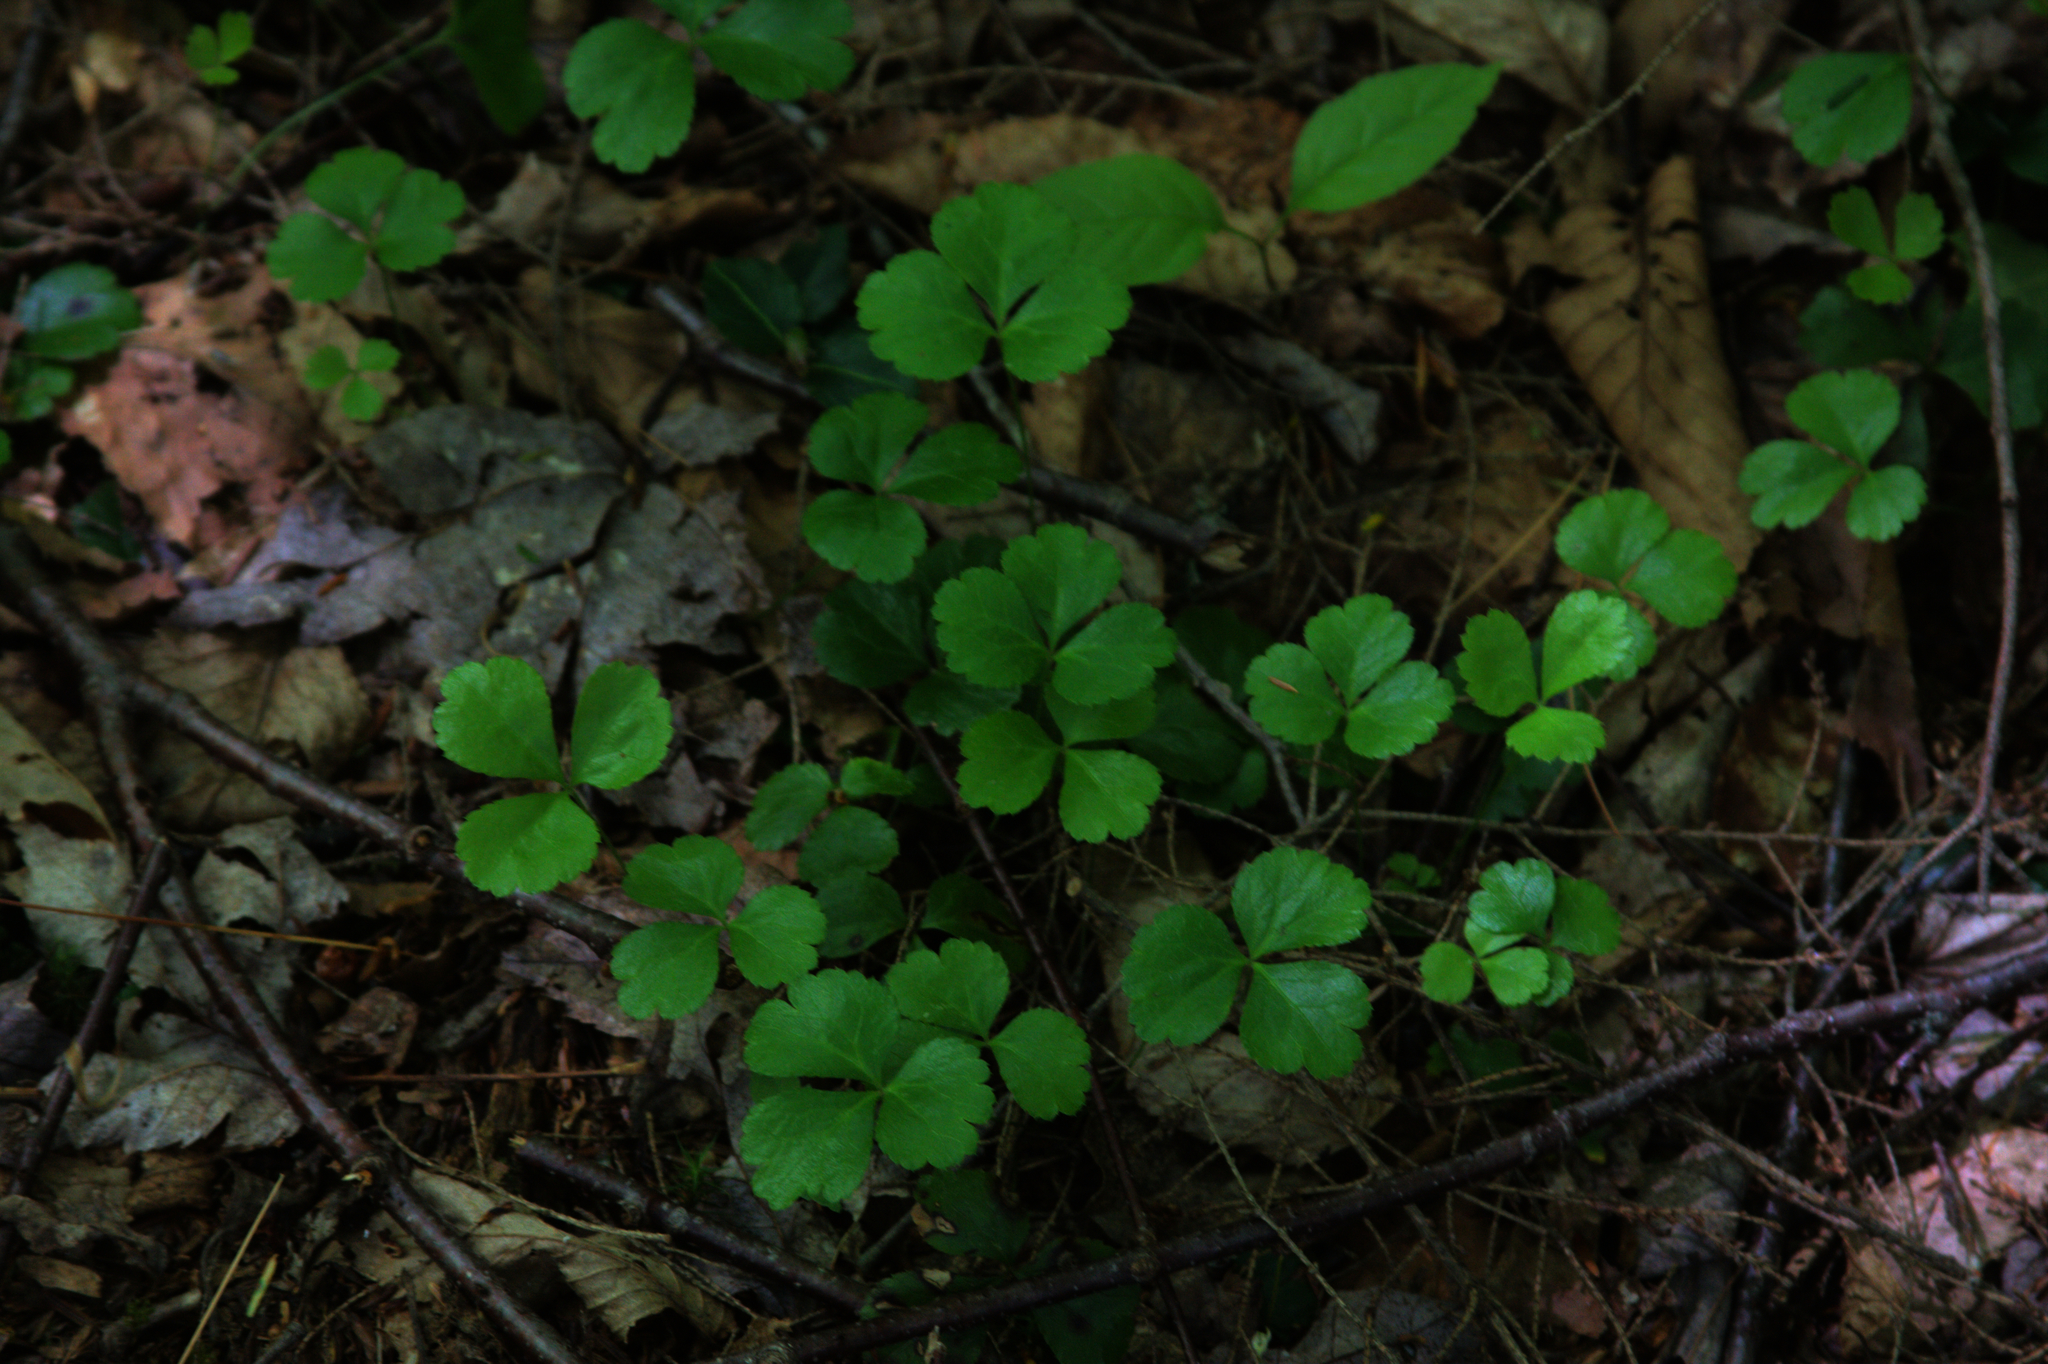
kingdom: Plantae
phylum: Tracheophyta
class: Magnoliopsida
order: Ranunculales
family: Ranunculaceae
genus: Coptis
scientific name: Coptis trifolia
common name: Canker-root
